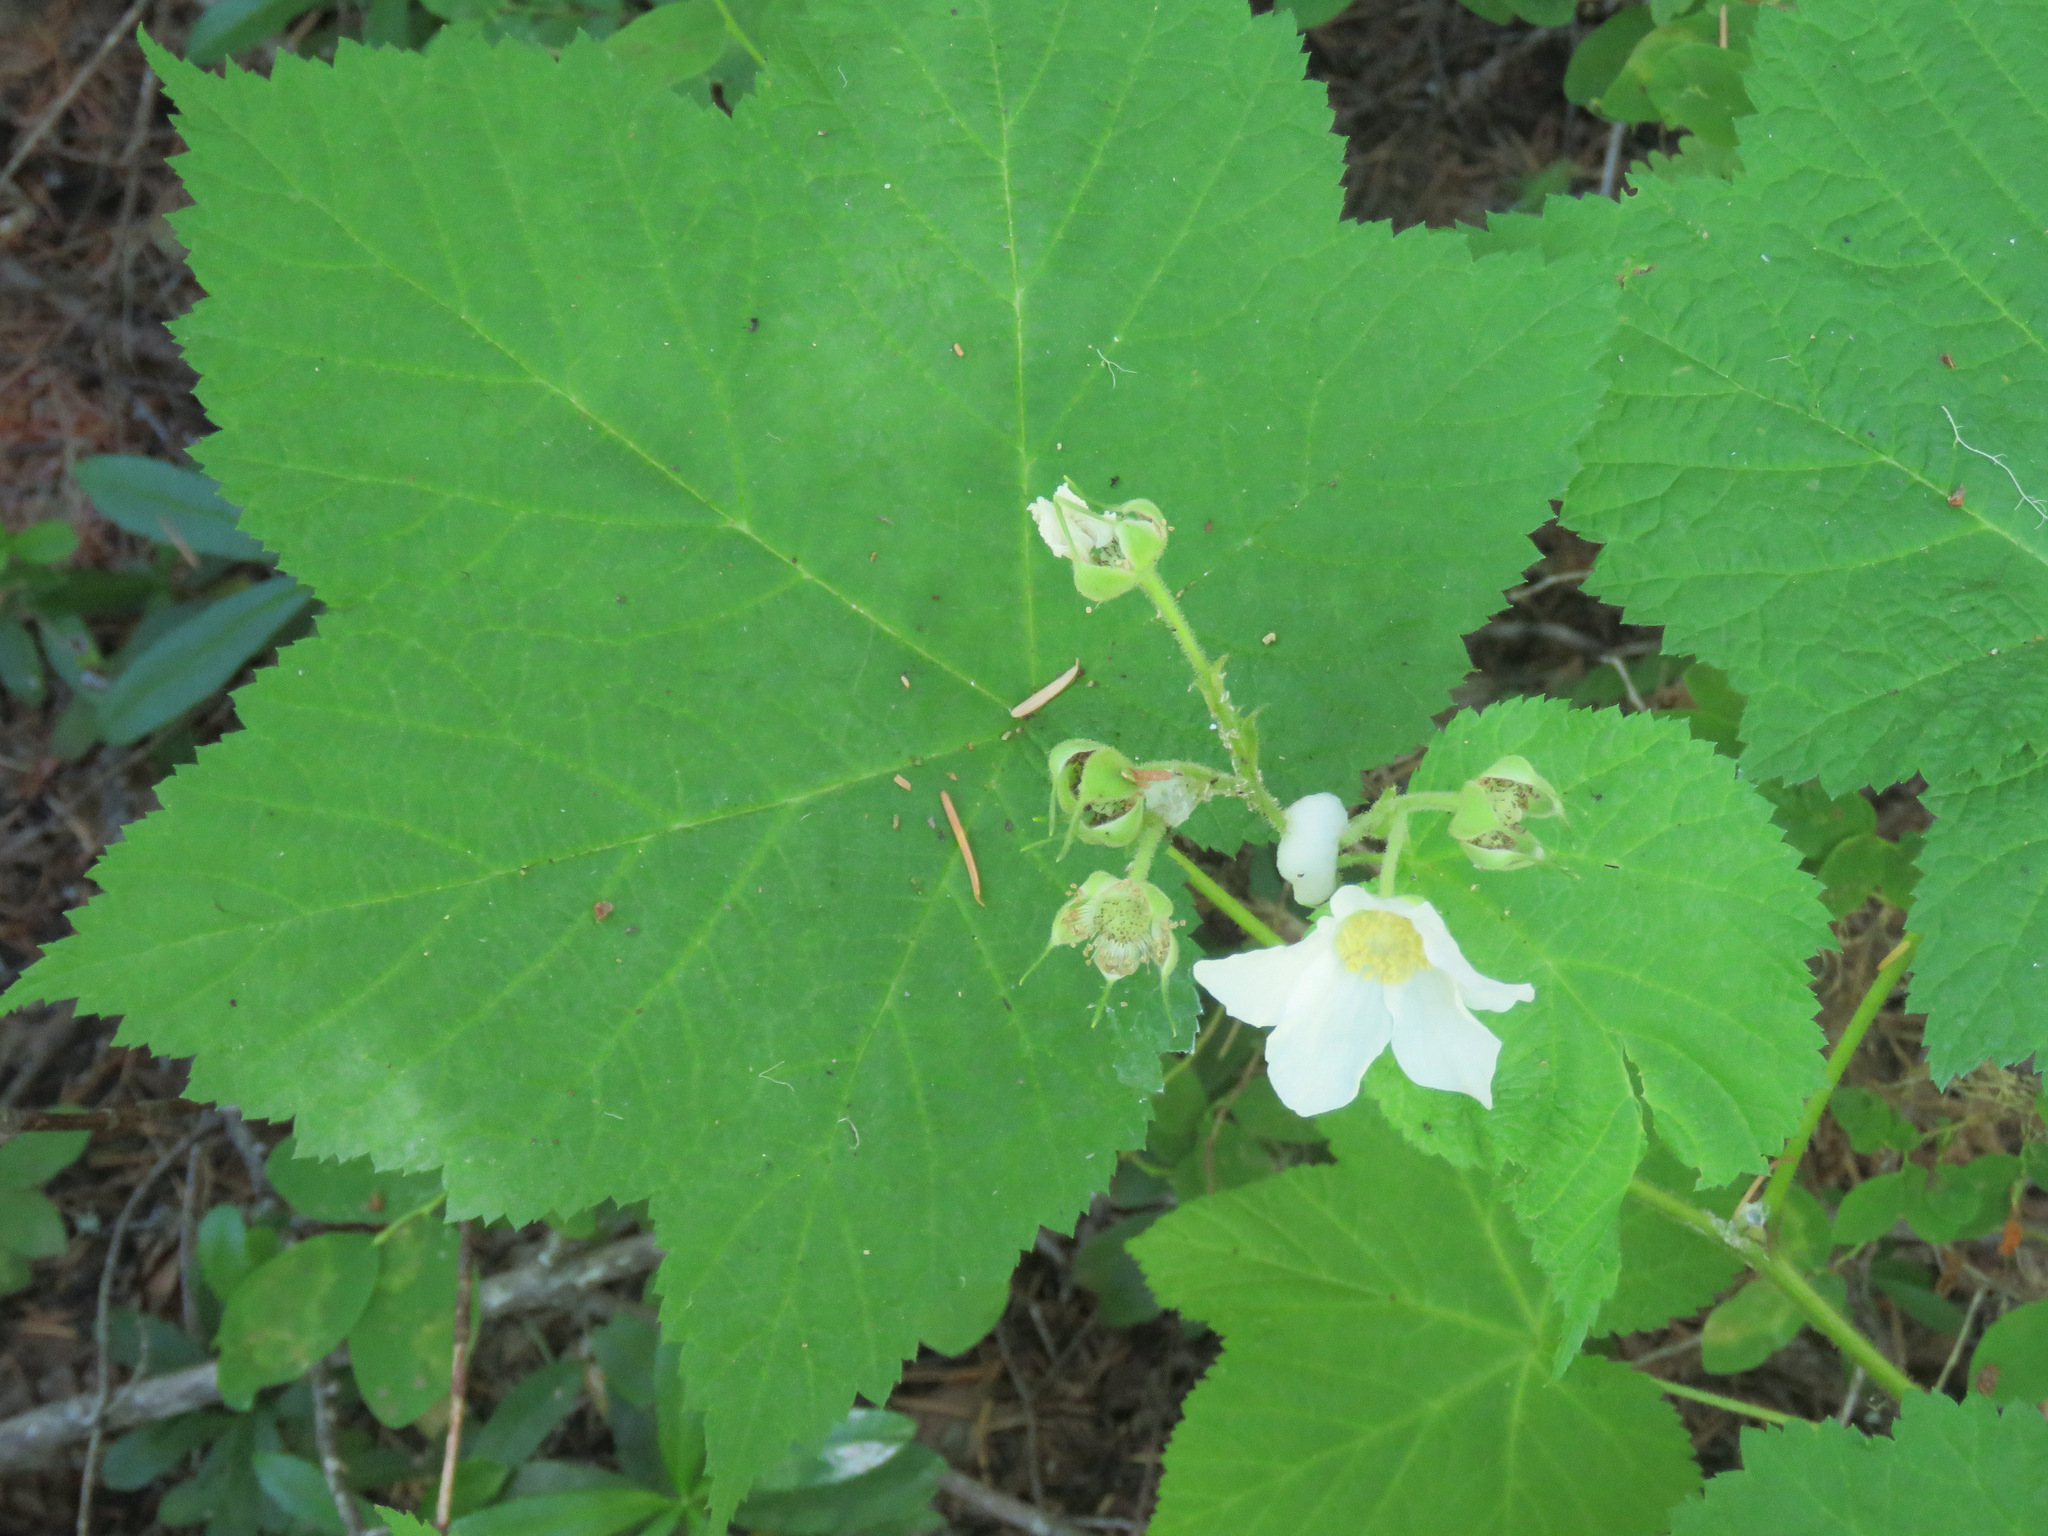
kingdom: Plantae
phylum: Tracheophyta
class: Magnoliopsida
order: Rosales
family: Rosaceae
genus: Rubus
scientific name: Rubus parviflorus
